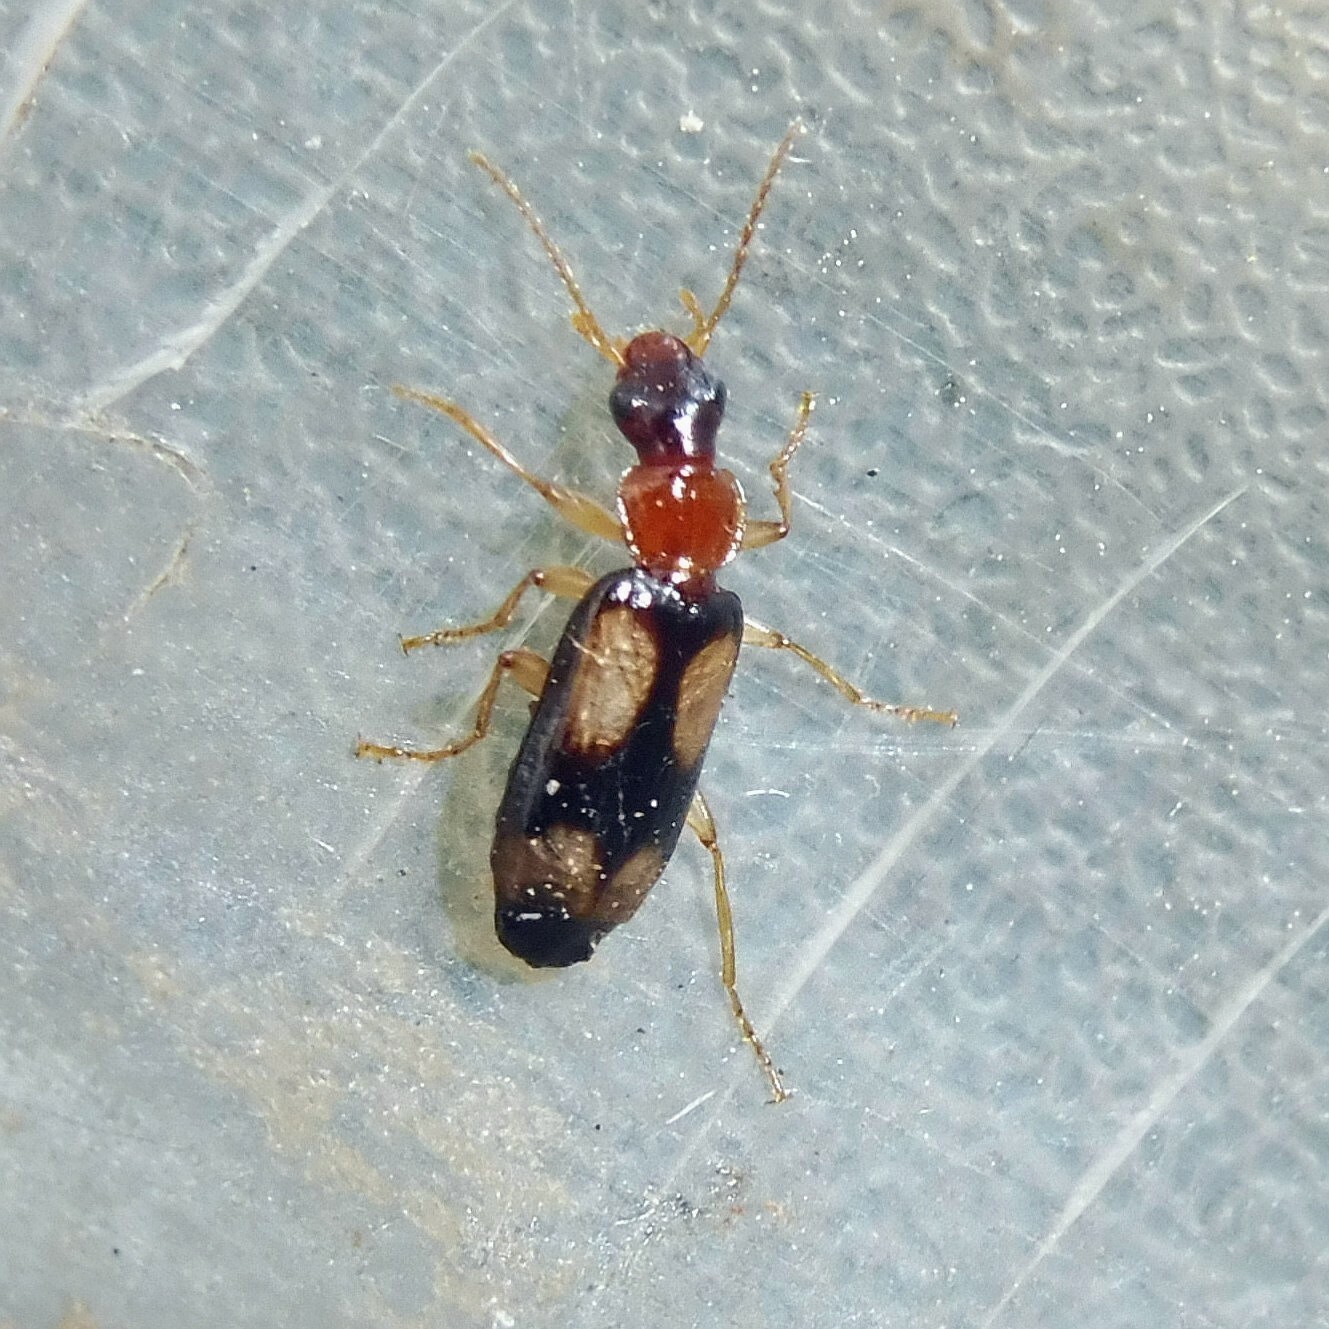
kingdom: Animalia
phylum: Arthropoda
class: Insecta
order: Coleoptera
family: Carabidae
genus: Dromius
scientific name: Dromius quadrimaculatus
